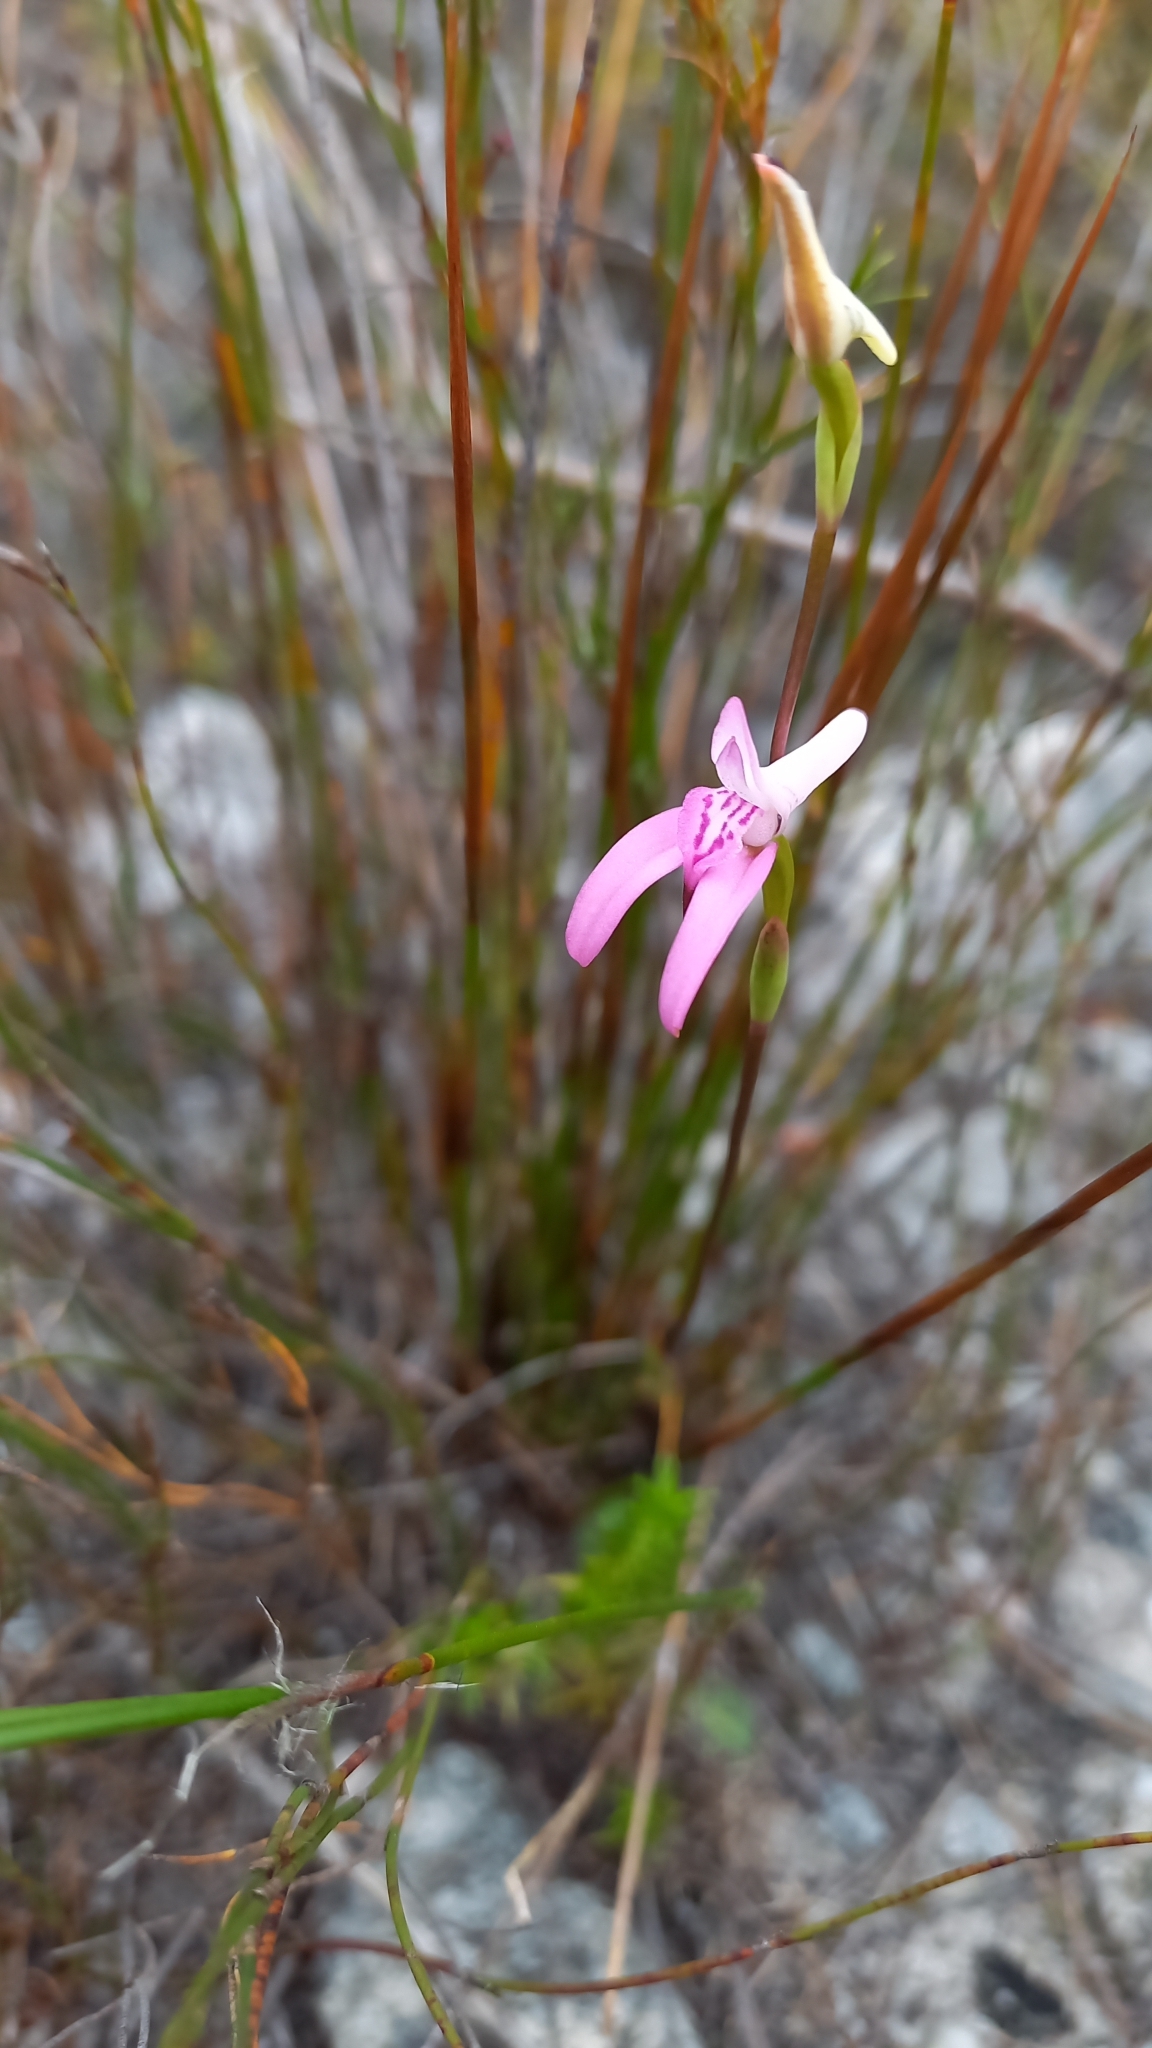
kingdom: Plantae
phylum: Tracheophyta
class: Liliopsida
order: Asparagales
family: Orchidaceae
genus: Disa
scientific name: Disa bifida
